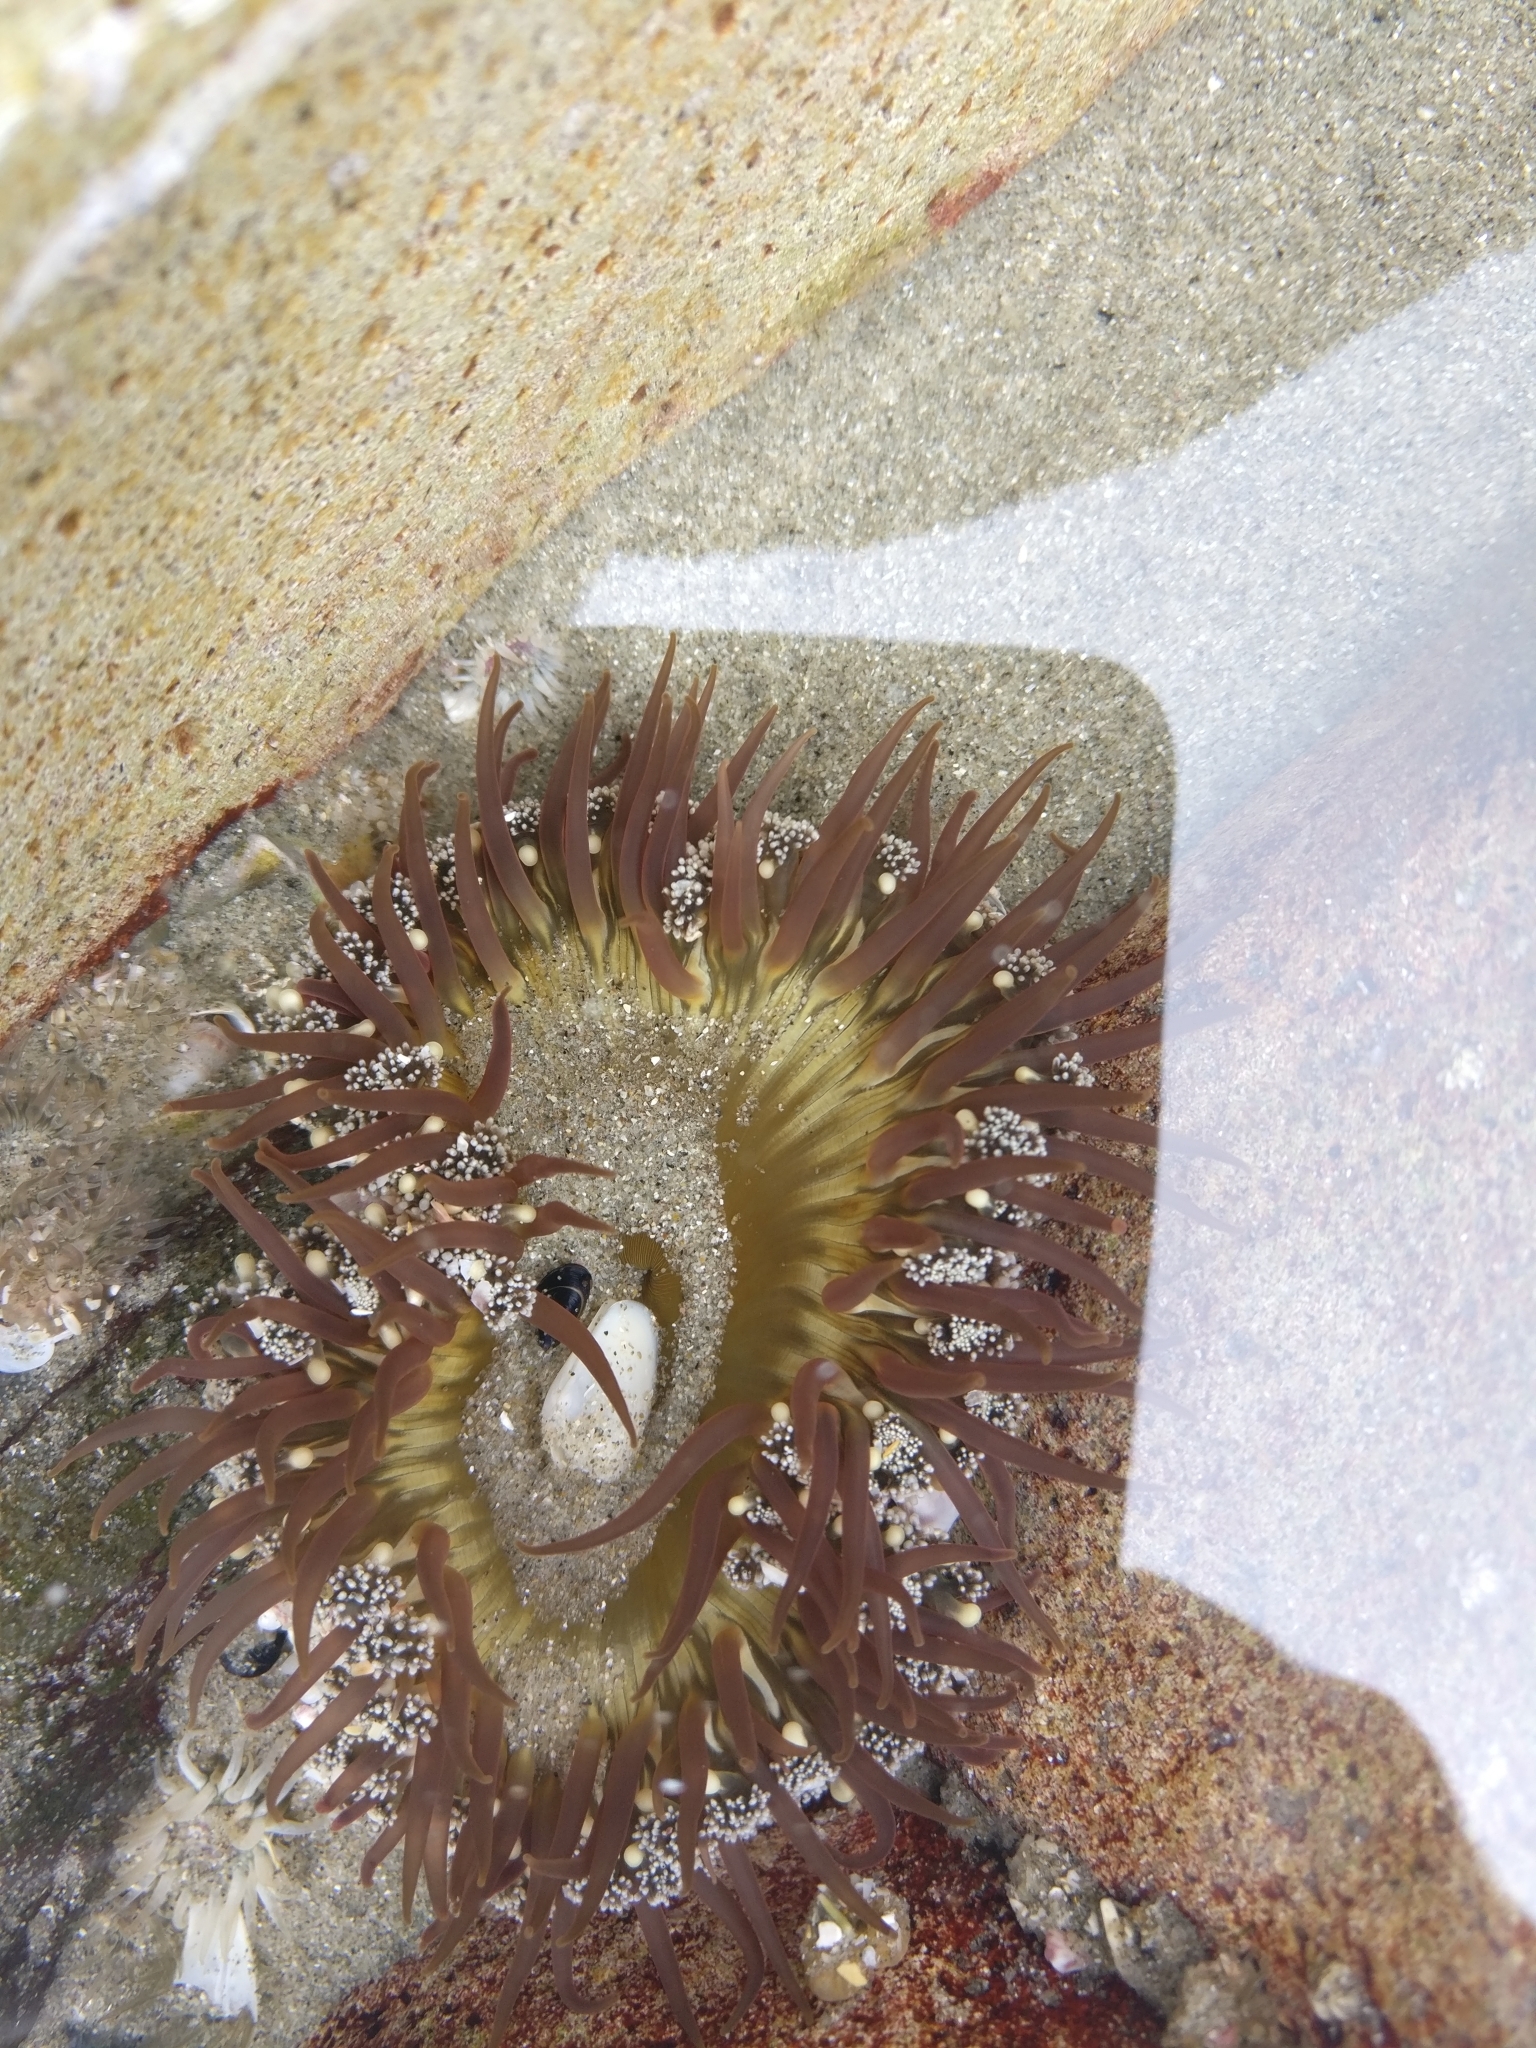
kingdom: Animalia
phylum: Cnidaria
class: Anthozoa
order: Actiniaria
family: Actiniidae
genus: Oulactis
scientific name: Oulactis magna
